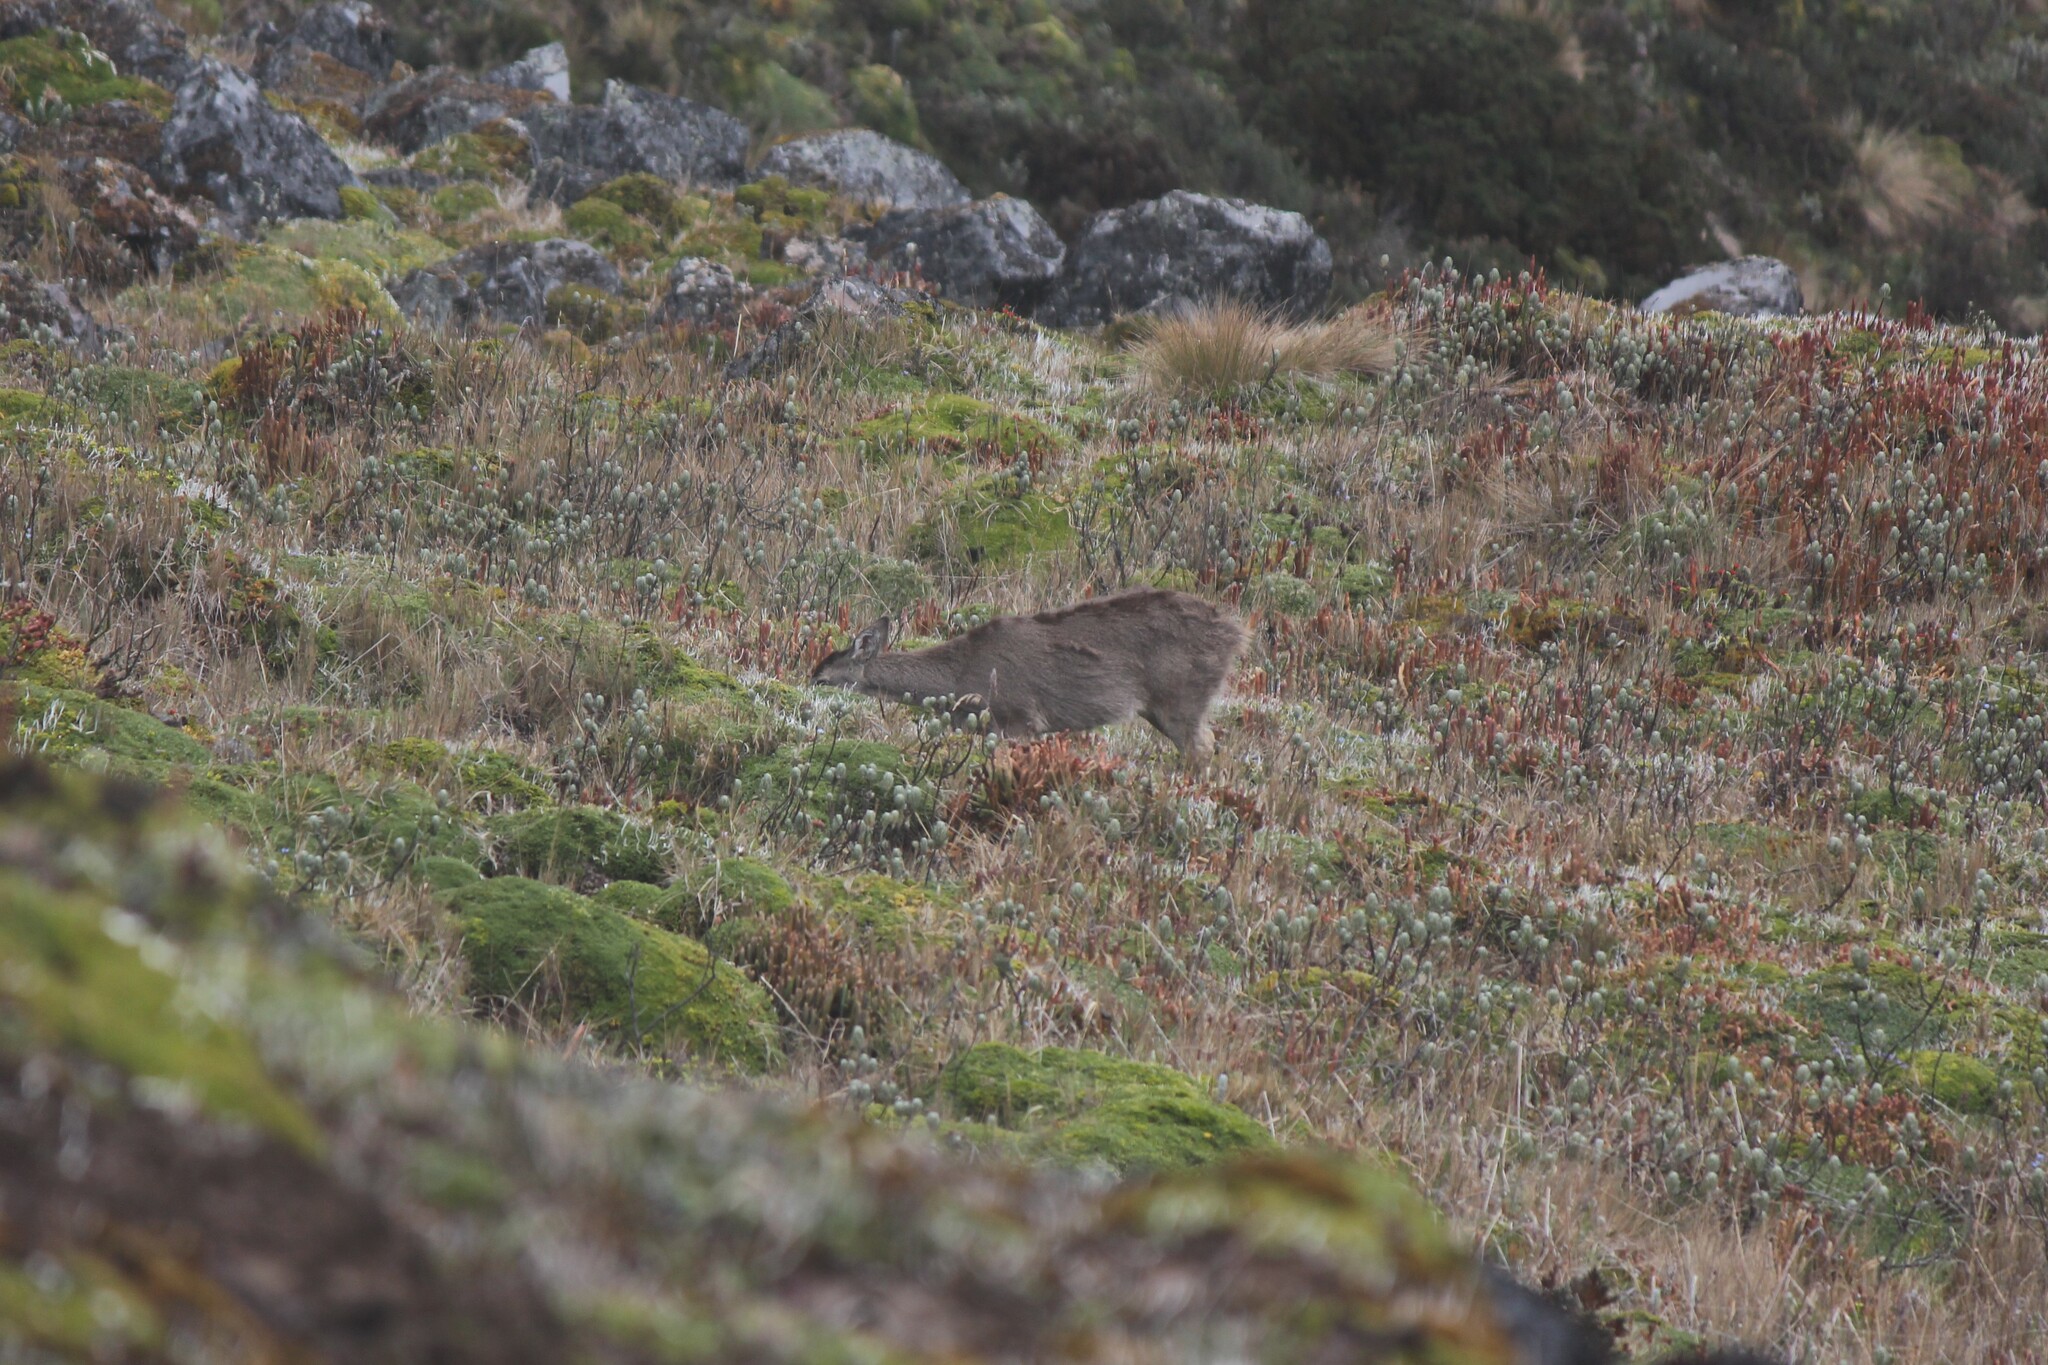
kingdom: Animalia
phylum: Chordata
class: Mammalia
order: Artiodactyla
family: Cervidae
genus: Odocoileus
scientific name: Odocoileus virginianus
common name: White-tailed deer
